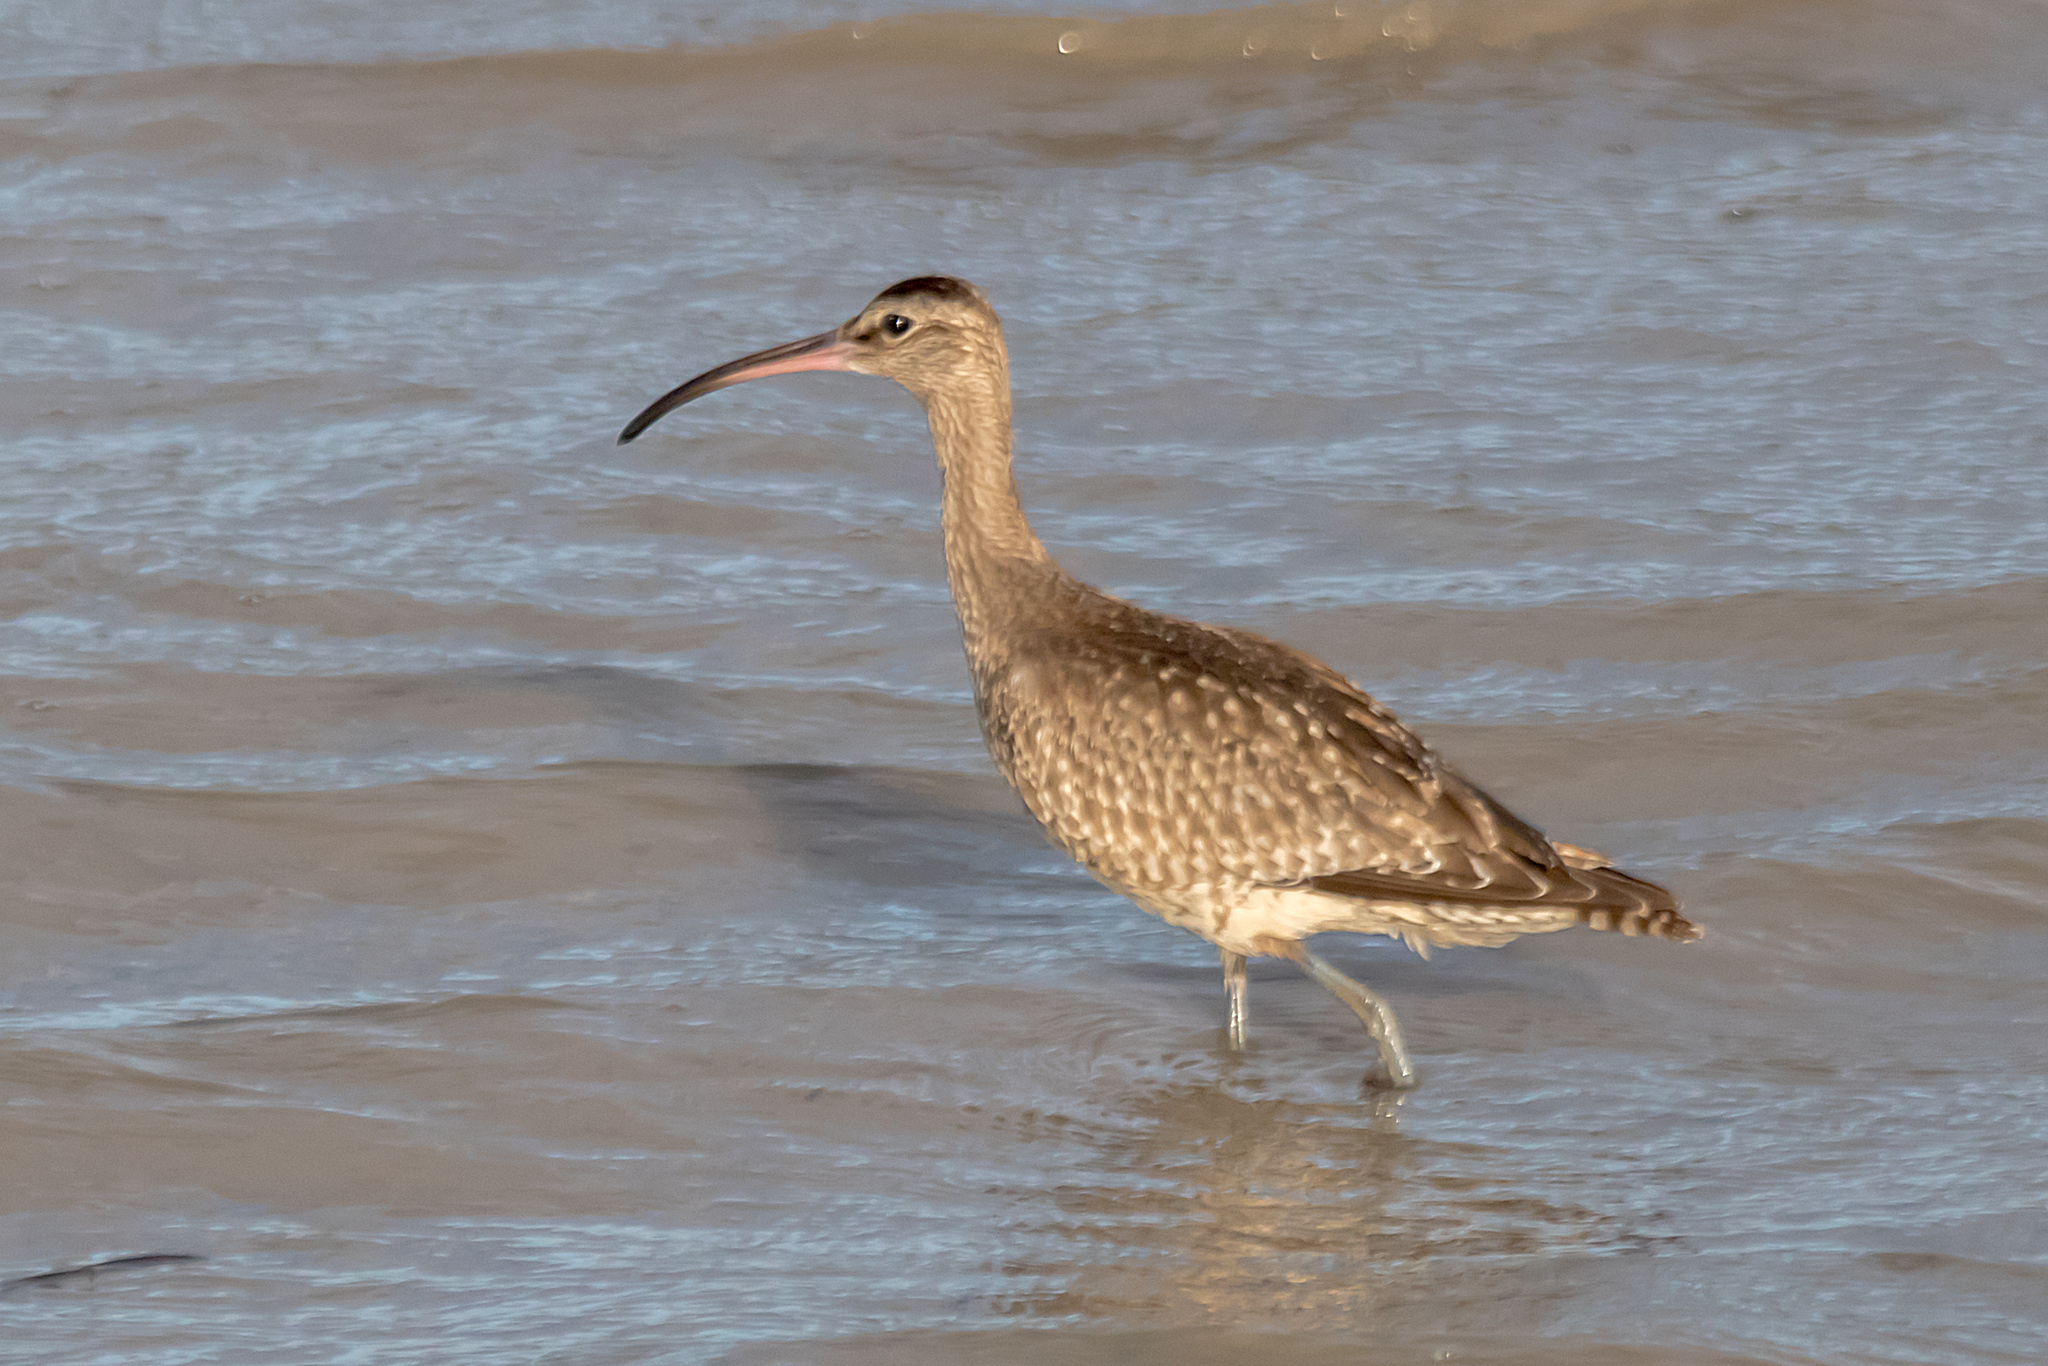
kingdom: Animalia
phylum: Chordata
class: Aves
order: Charadriiformes
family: Scolopacidae
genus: Numenius
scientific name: Numenius phaeopus
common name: Whimbrel
